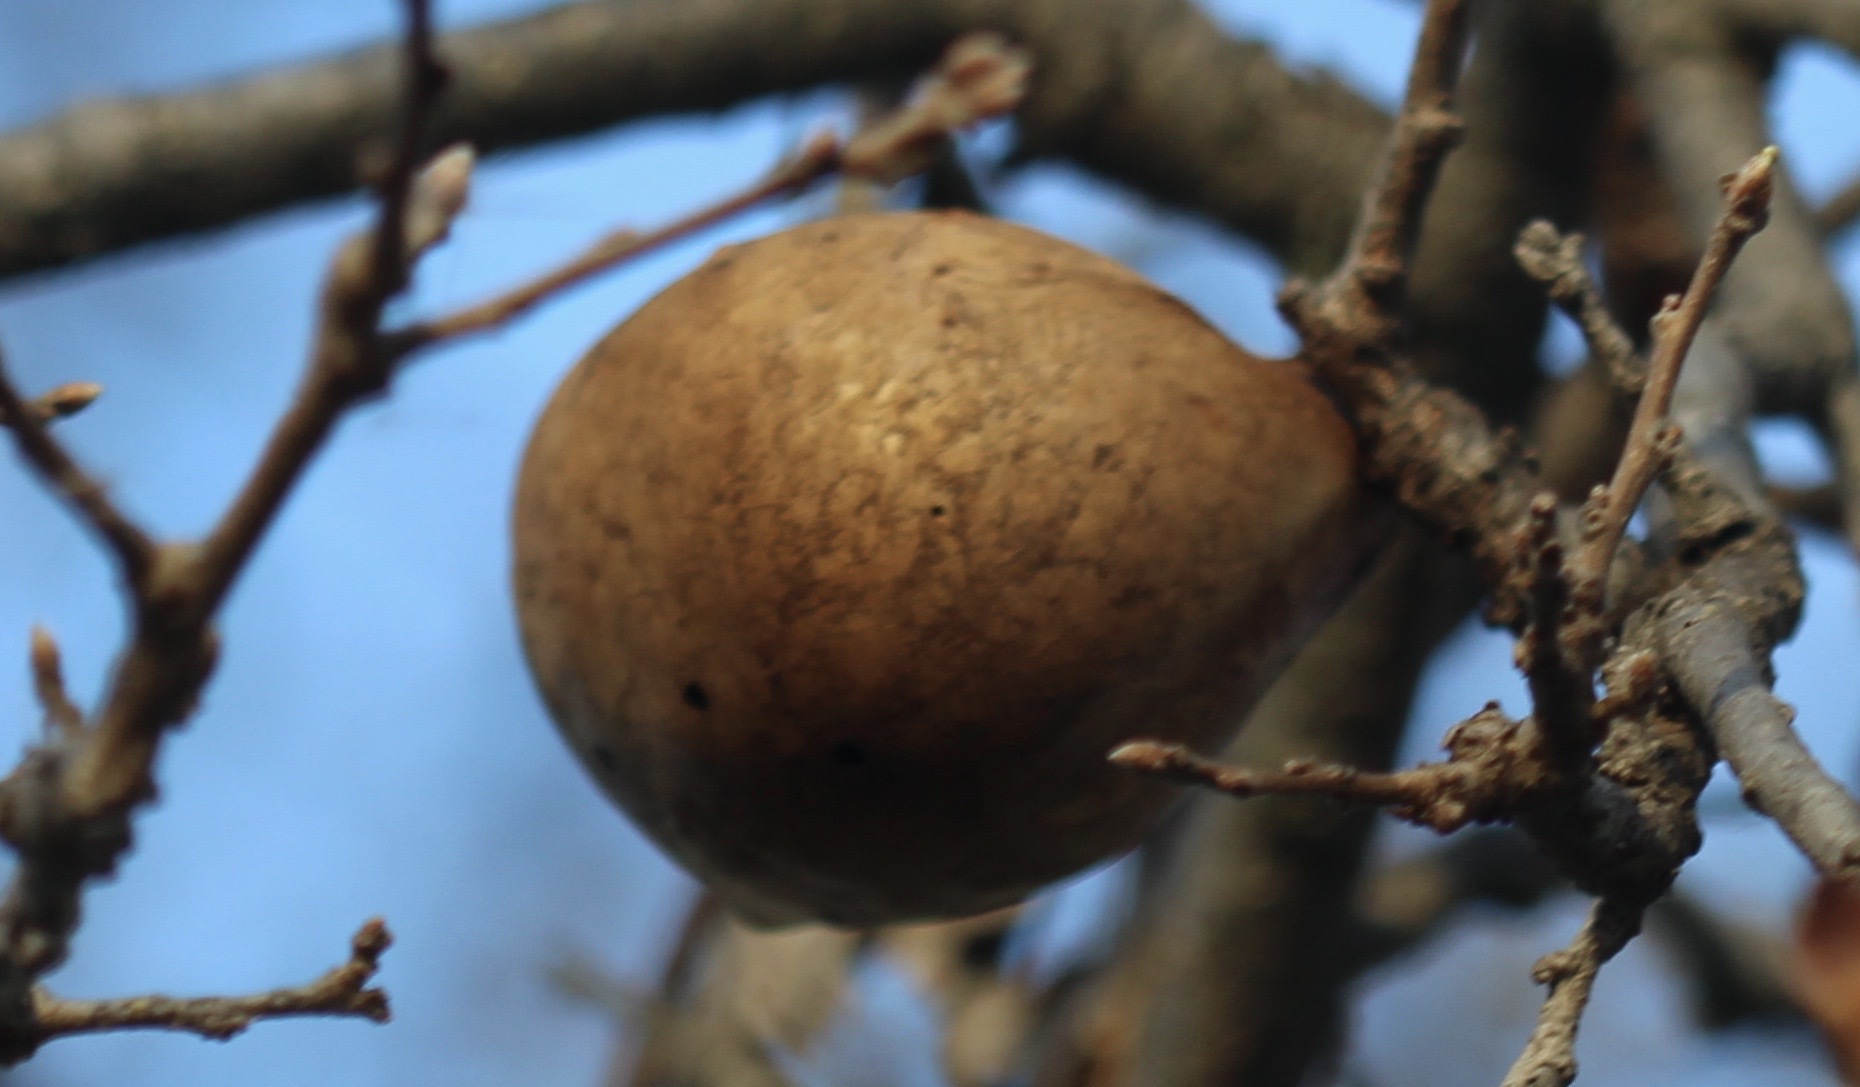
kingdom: Animalia
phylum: Arthropoda
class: Insecta
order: Hymenoptera
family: Cynipidae
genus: Andricus
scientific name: Andricus quercuscalifornicus
